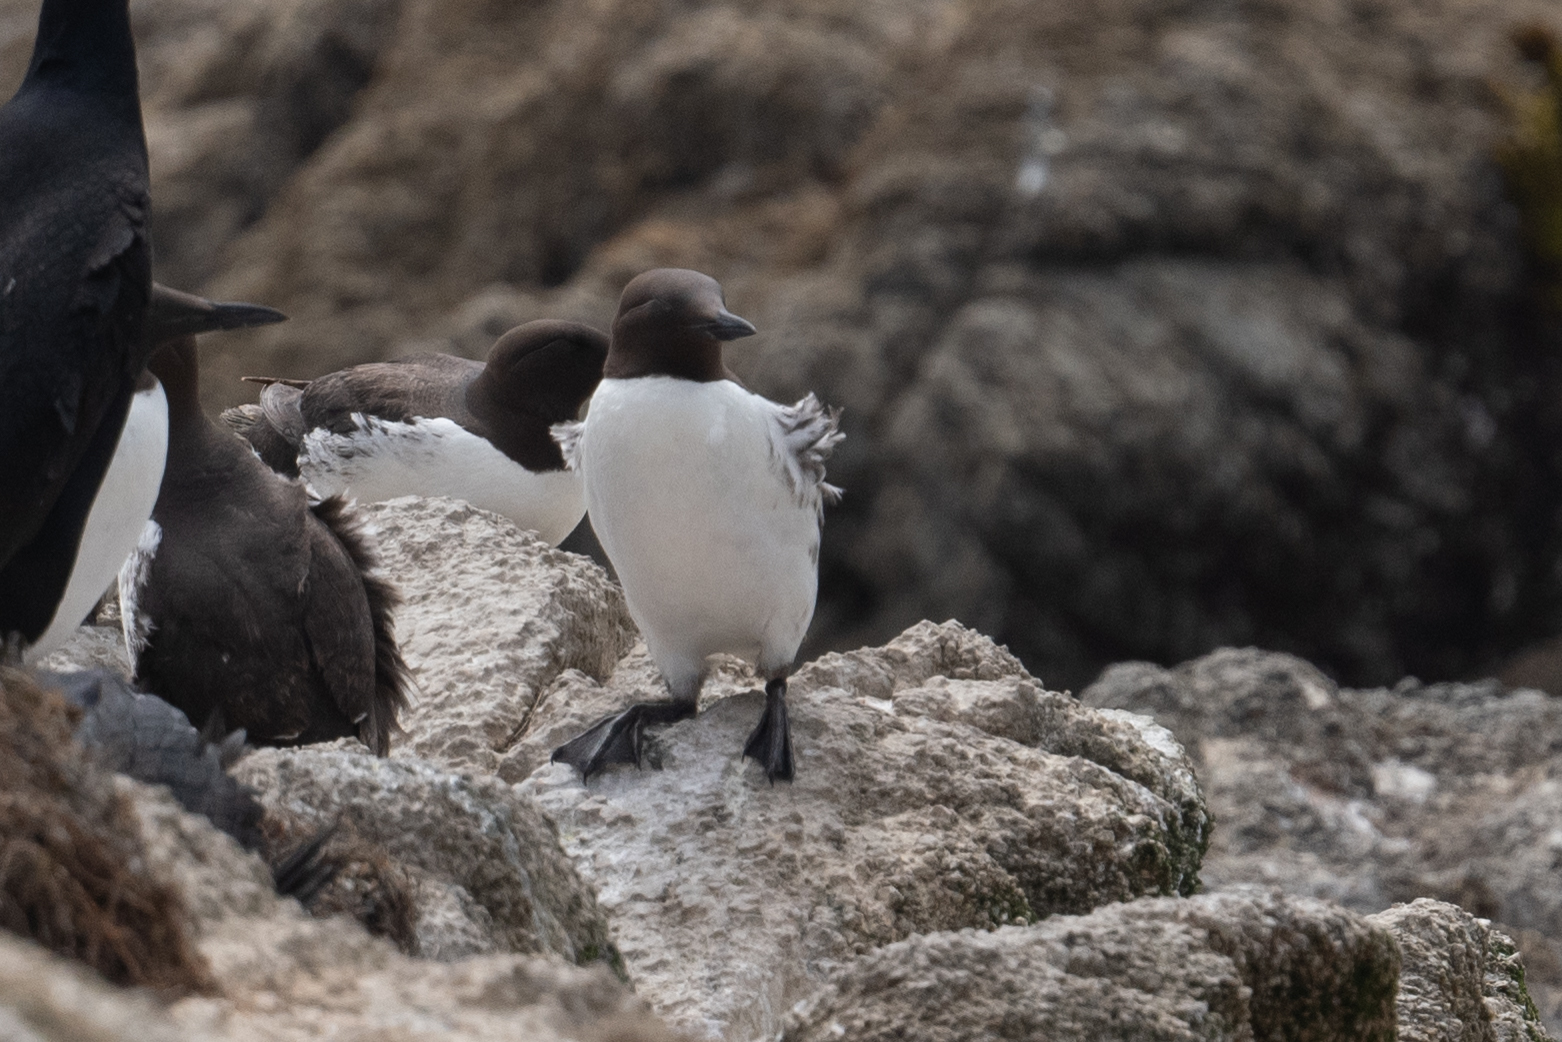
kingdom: Animalia
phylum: Chordata
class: Aves
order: Charadriiformes
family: Alcidae
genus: Uria
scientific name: Uria aalge
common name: Common murre
